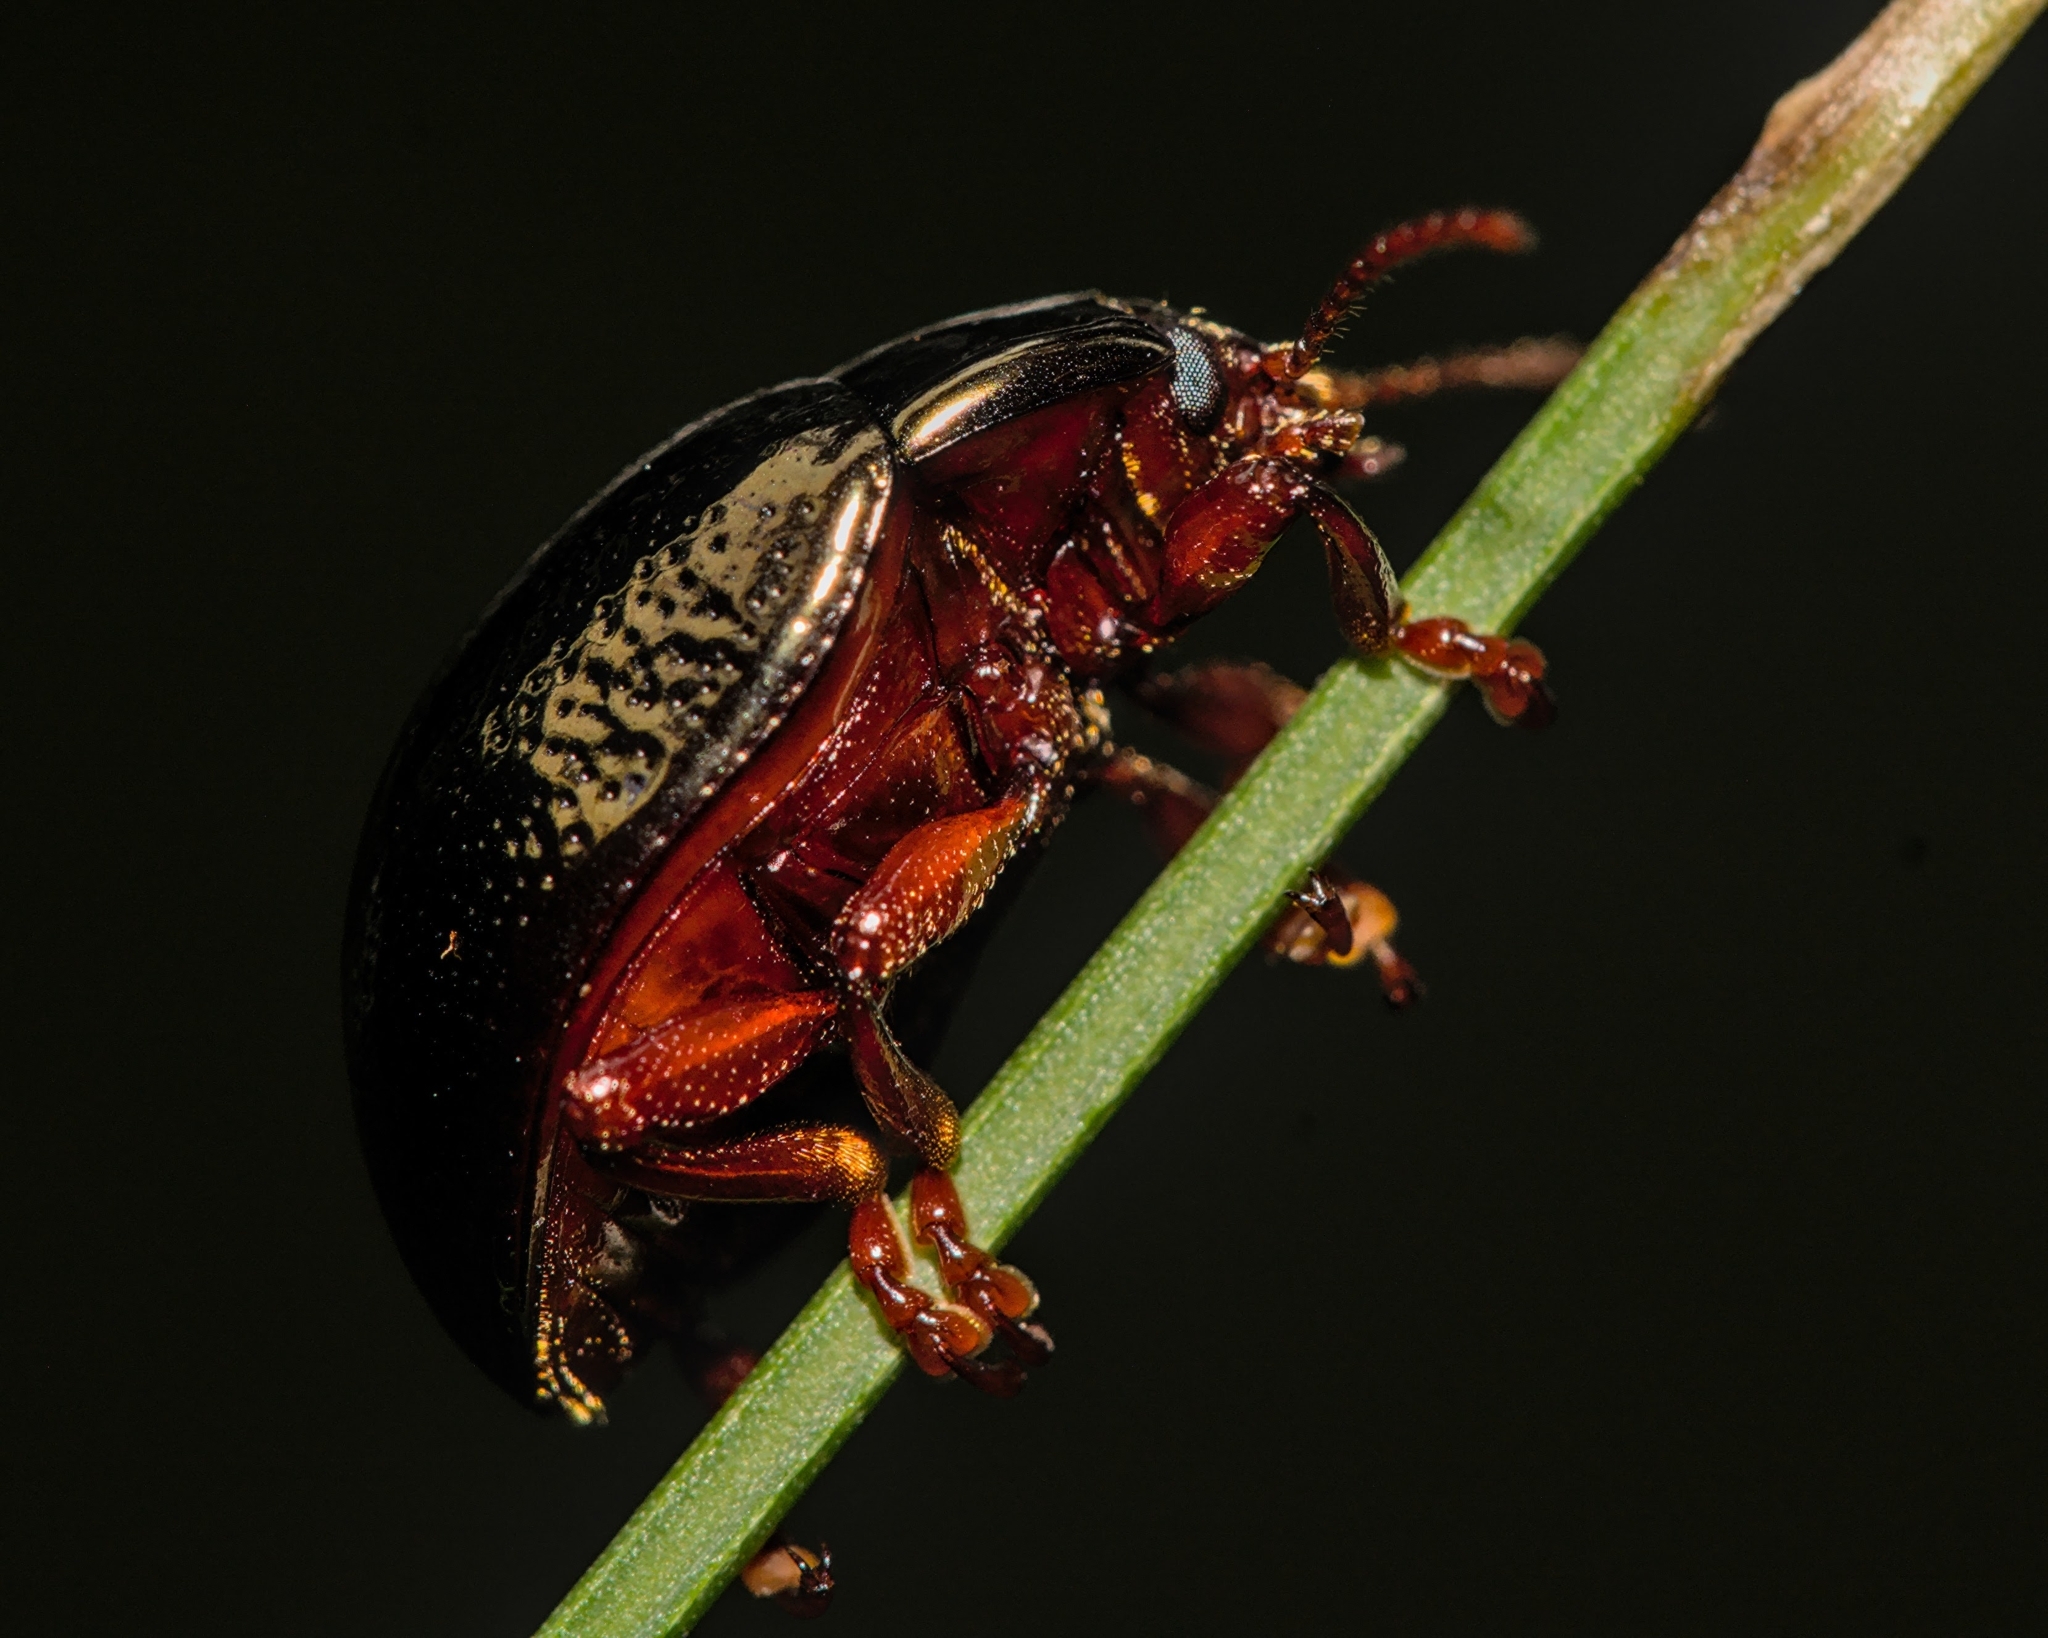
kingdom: Animalia
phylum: Arthropoda
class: Insecta
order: Coleoptera
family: Chrysomelidae
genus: Chrysolina
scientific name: Chrysolina bankii
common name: Leaf beetle
